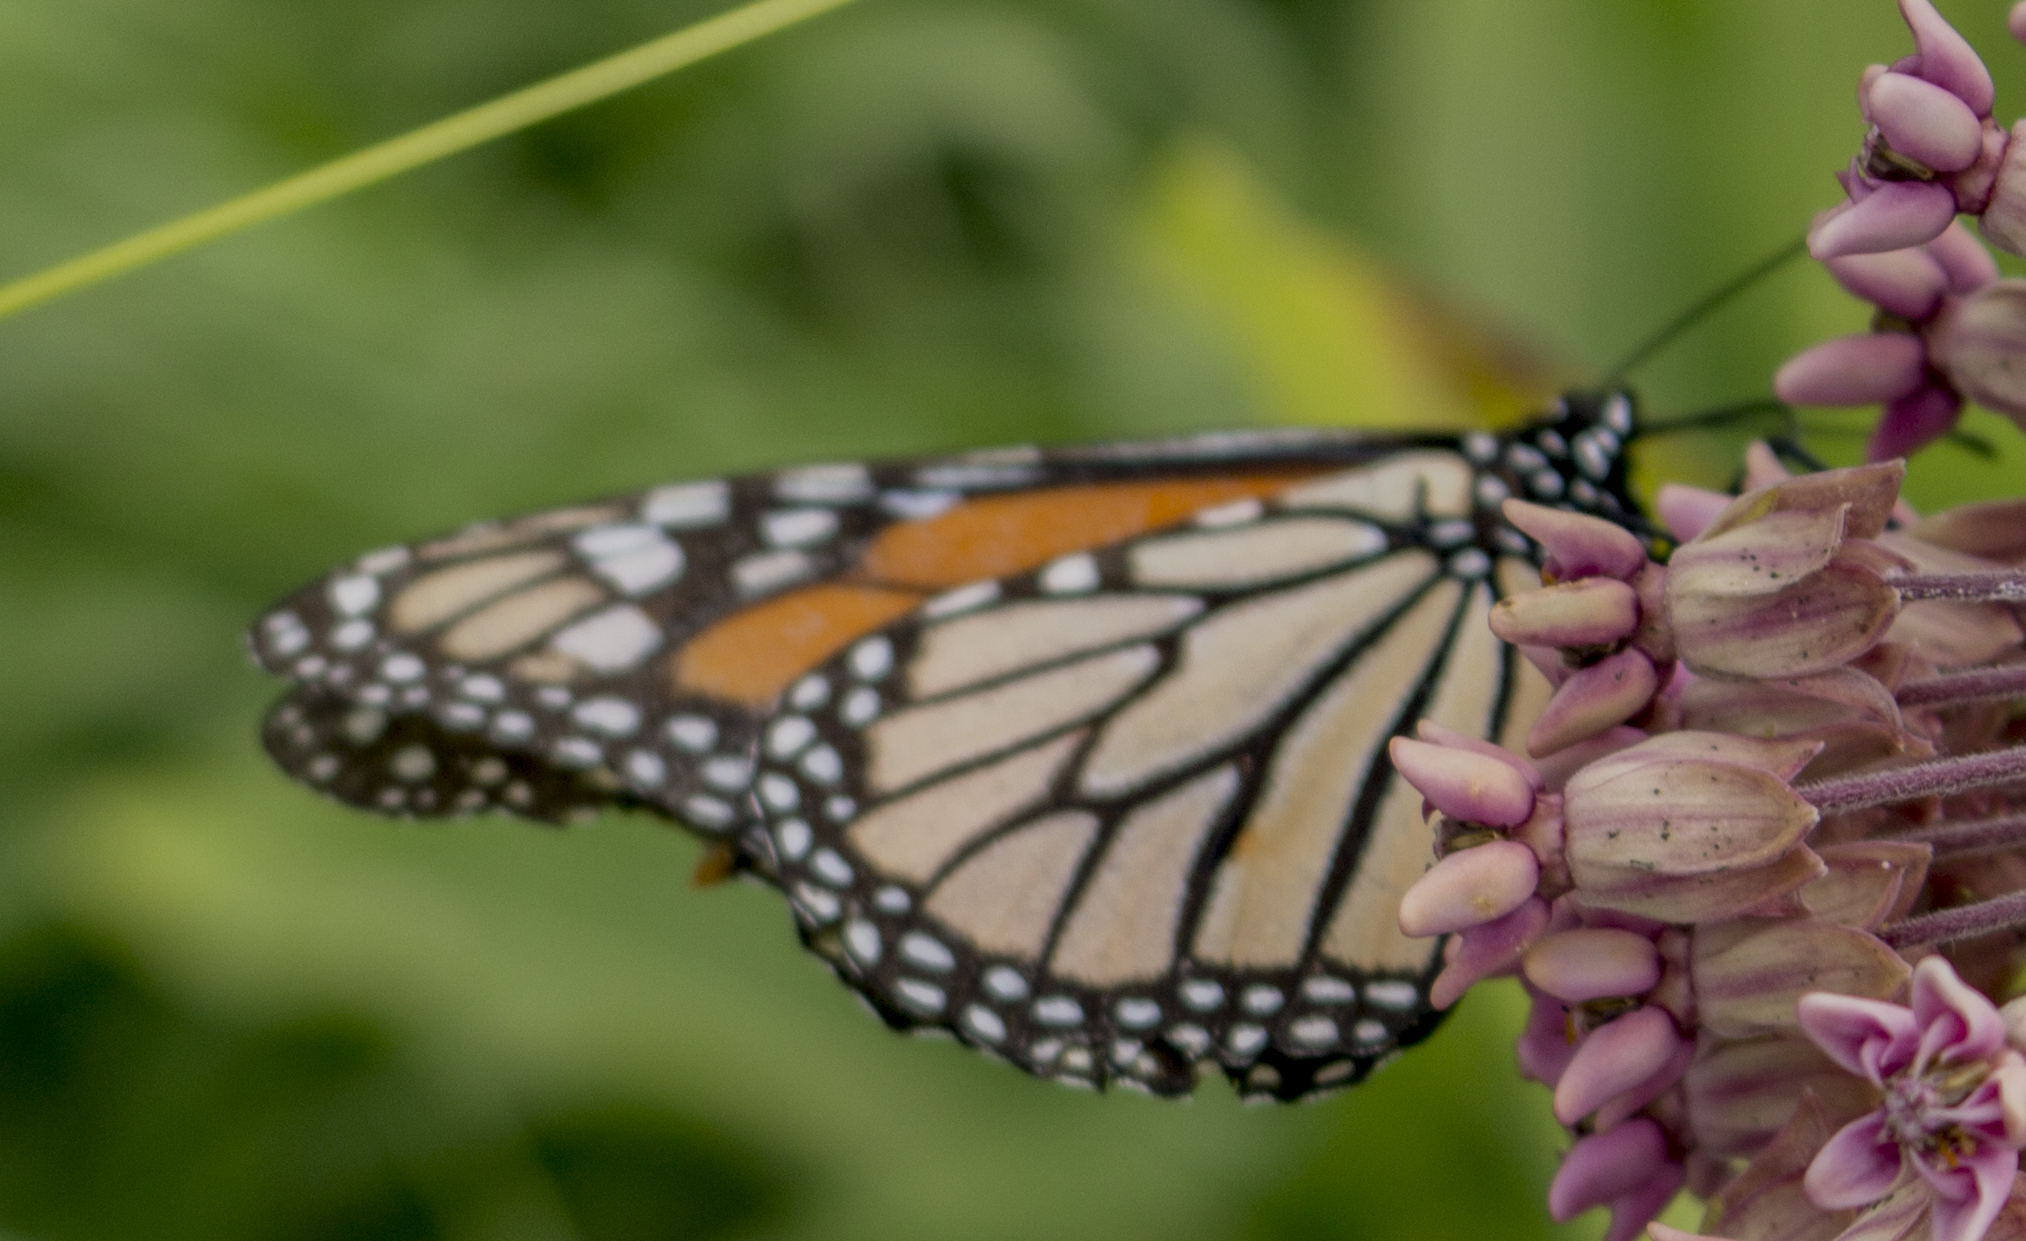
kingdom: Animalia
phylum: Arthropoda
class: Insecta
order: Lepidoptera
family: Nymphalidae
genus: Danaus
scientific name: Danaus plexippus
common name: Monarch
